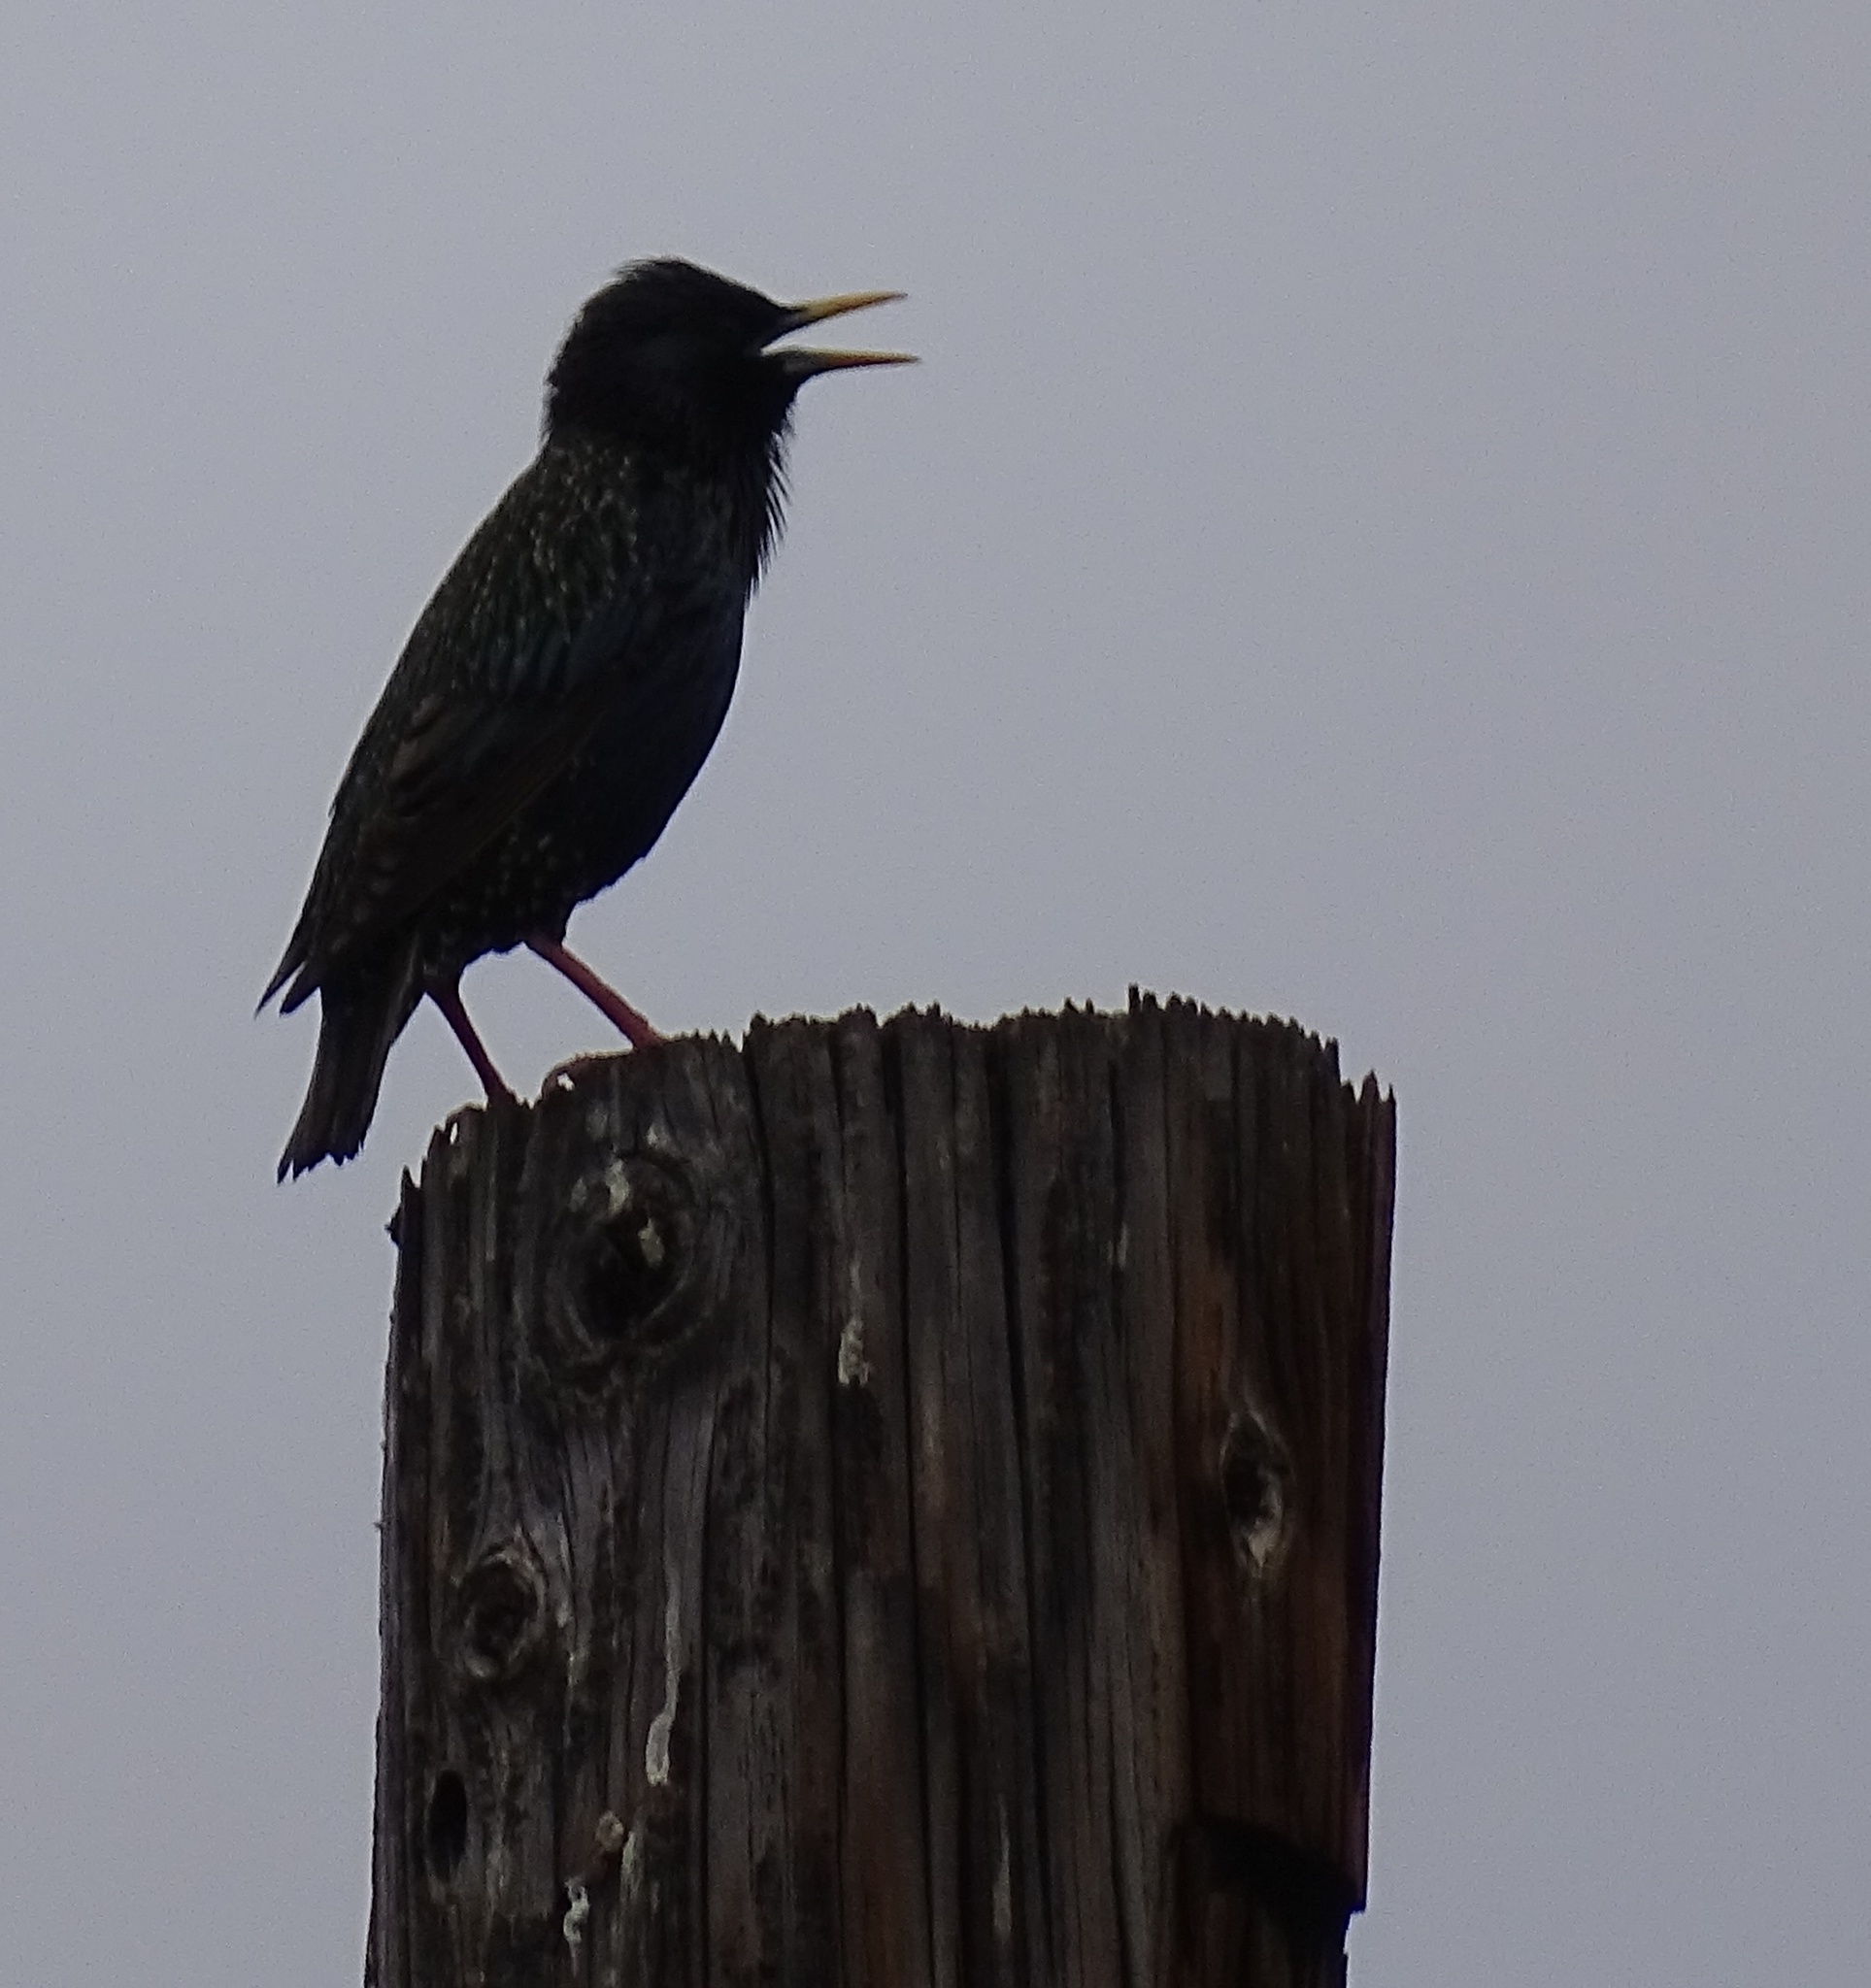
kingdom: Animalia
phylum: Chordata
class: Aves
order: Passeriformes
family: Sturnidae
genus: Sturnus
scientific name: Sturnus vulgaris
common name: Common starling
